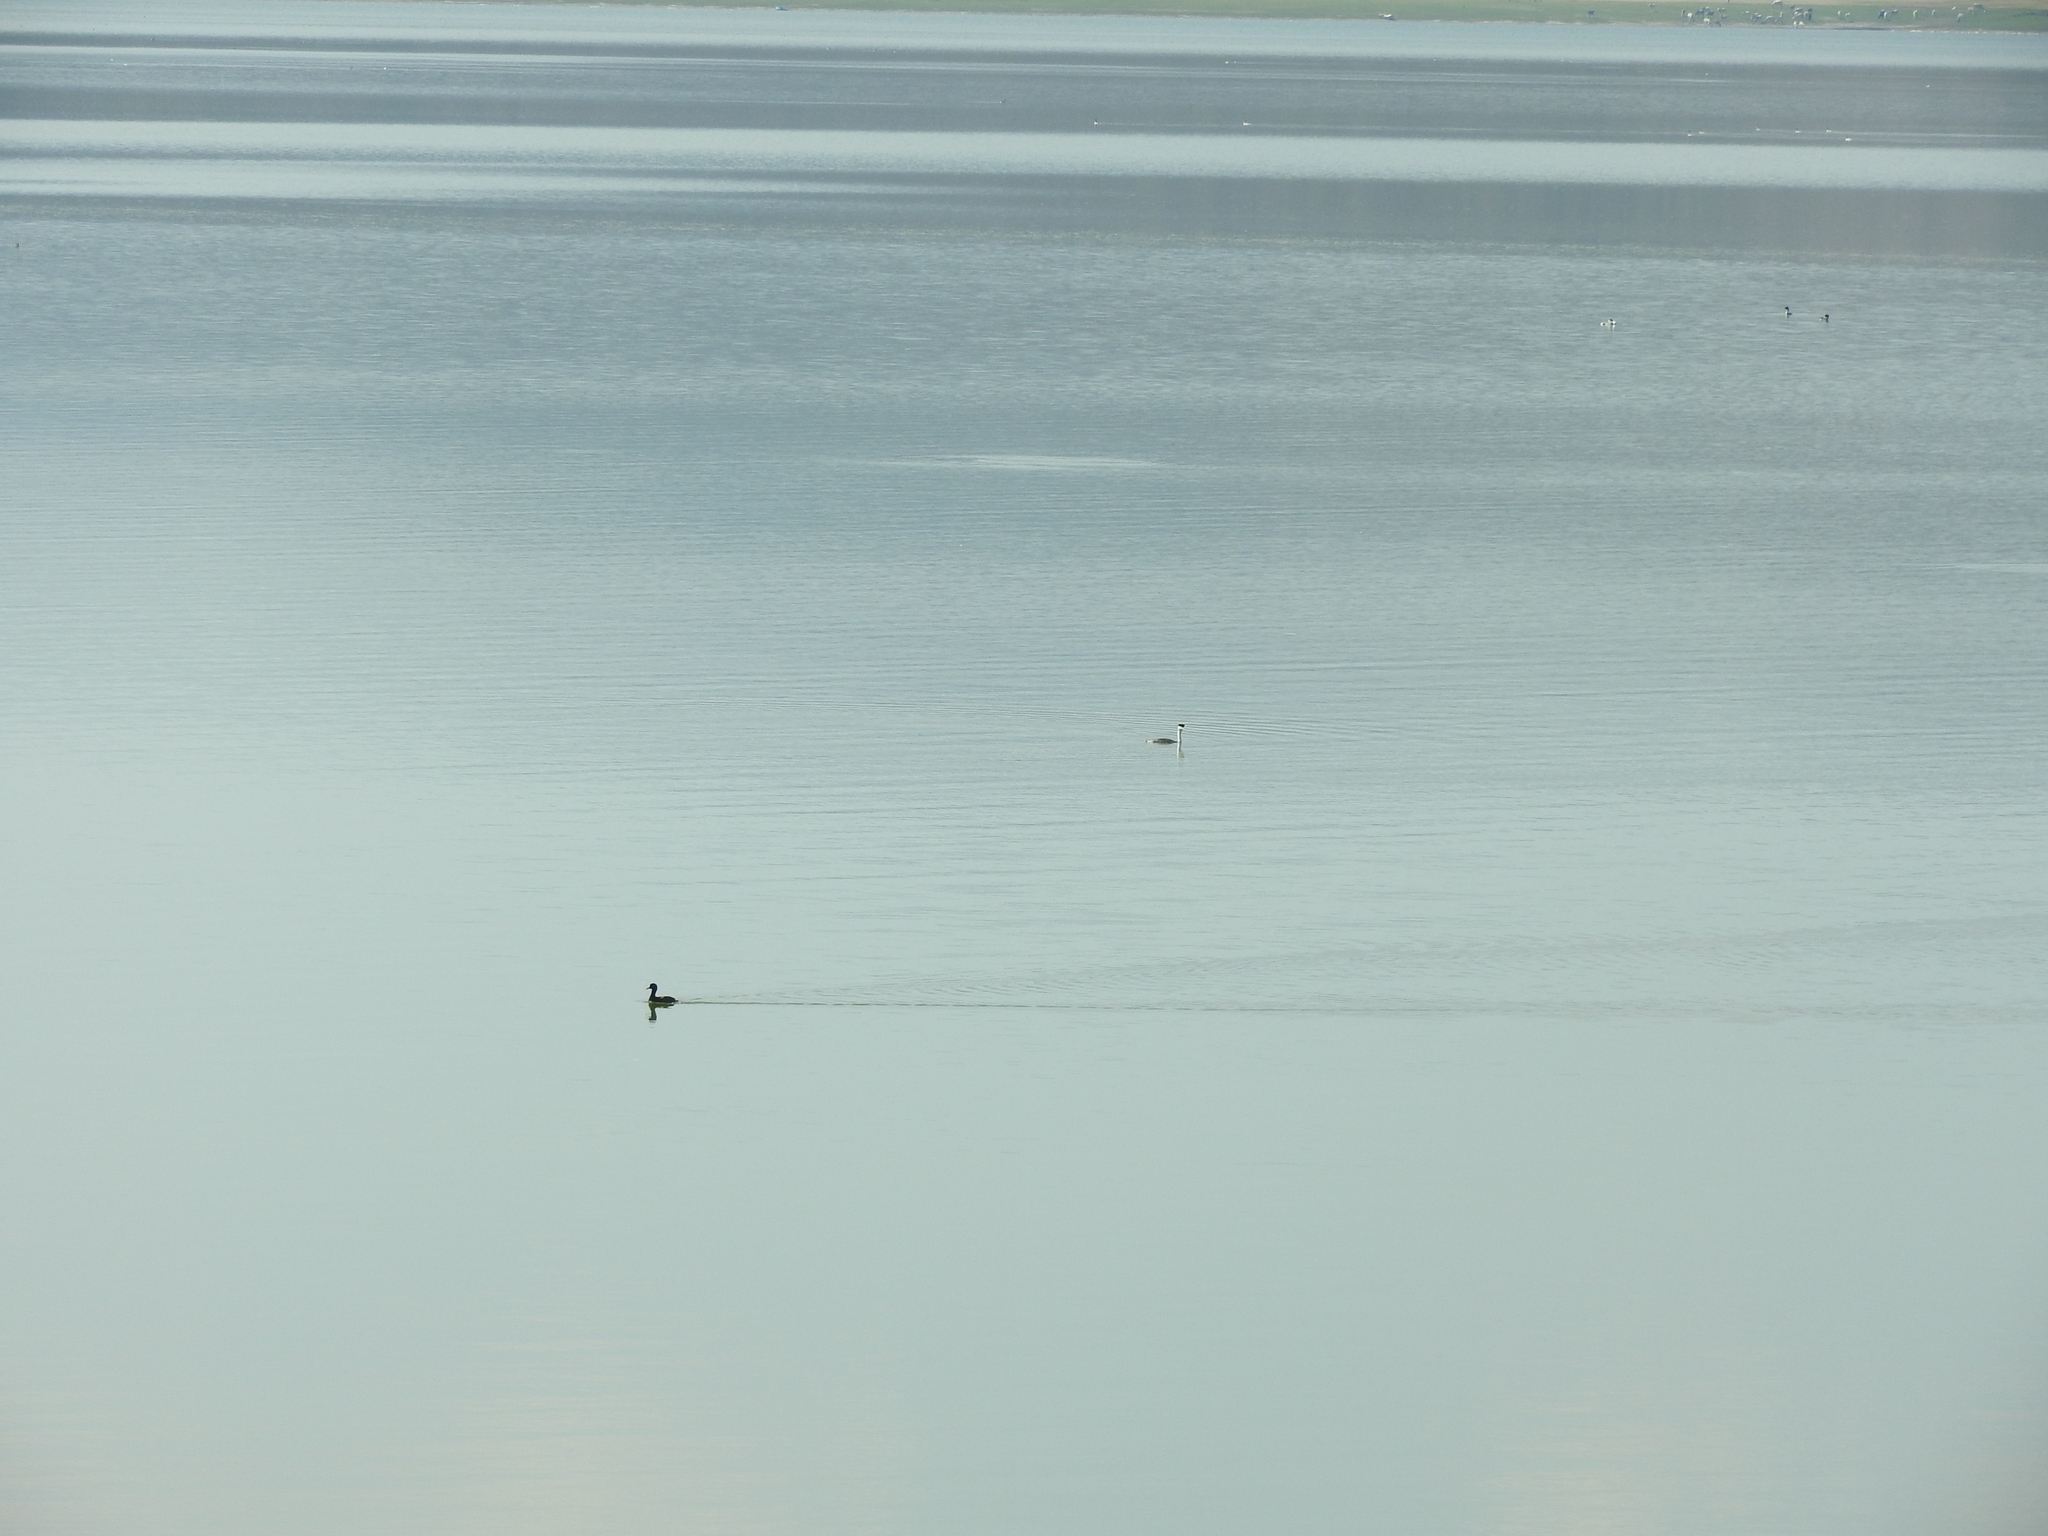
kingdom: Animalia
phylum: Chordata
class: Aves
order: Gruiformes
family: Rallidae
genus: Fulica
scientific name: Fulica americana
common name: American coot
